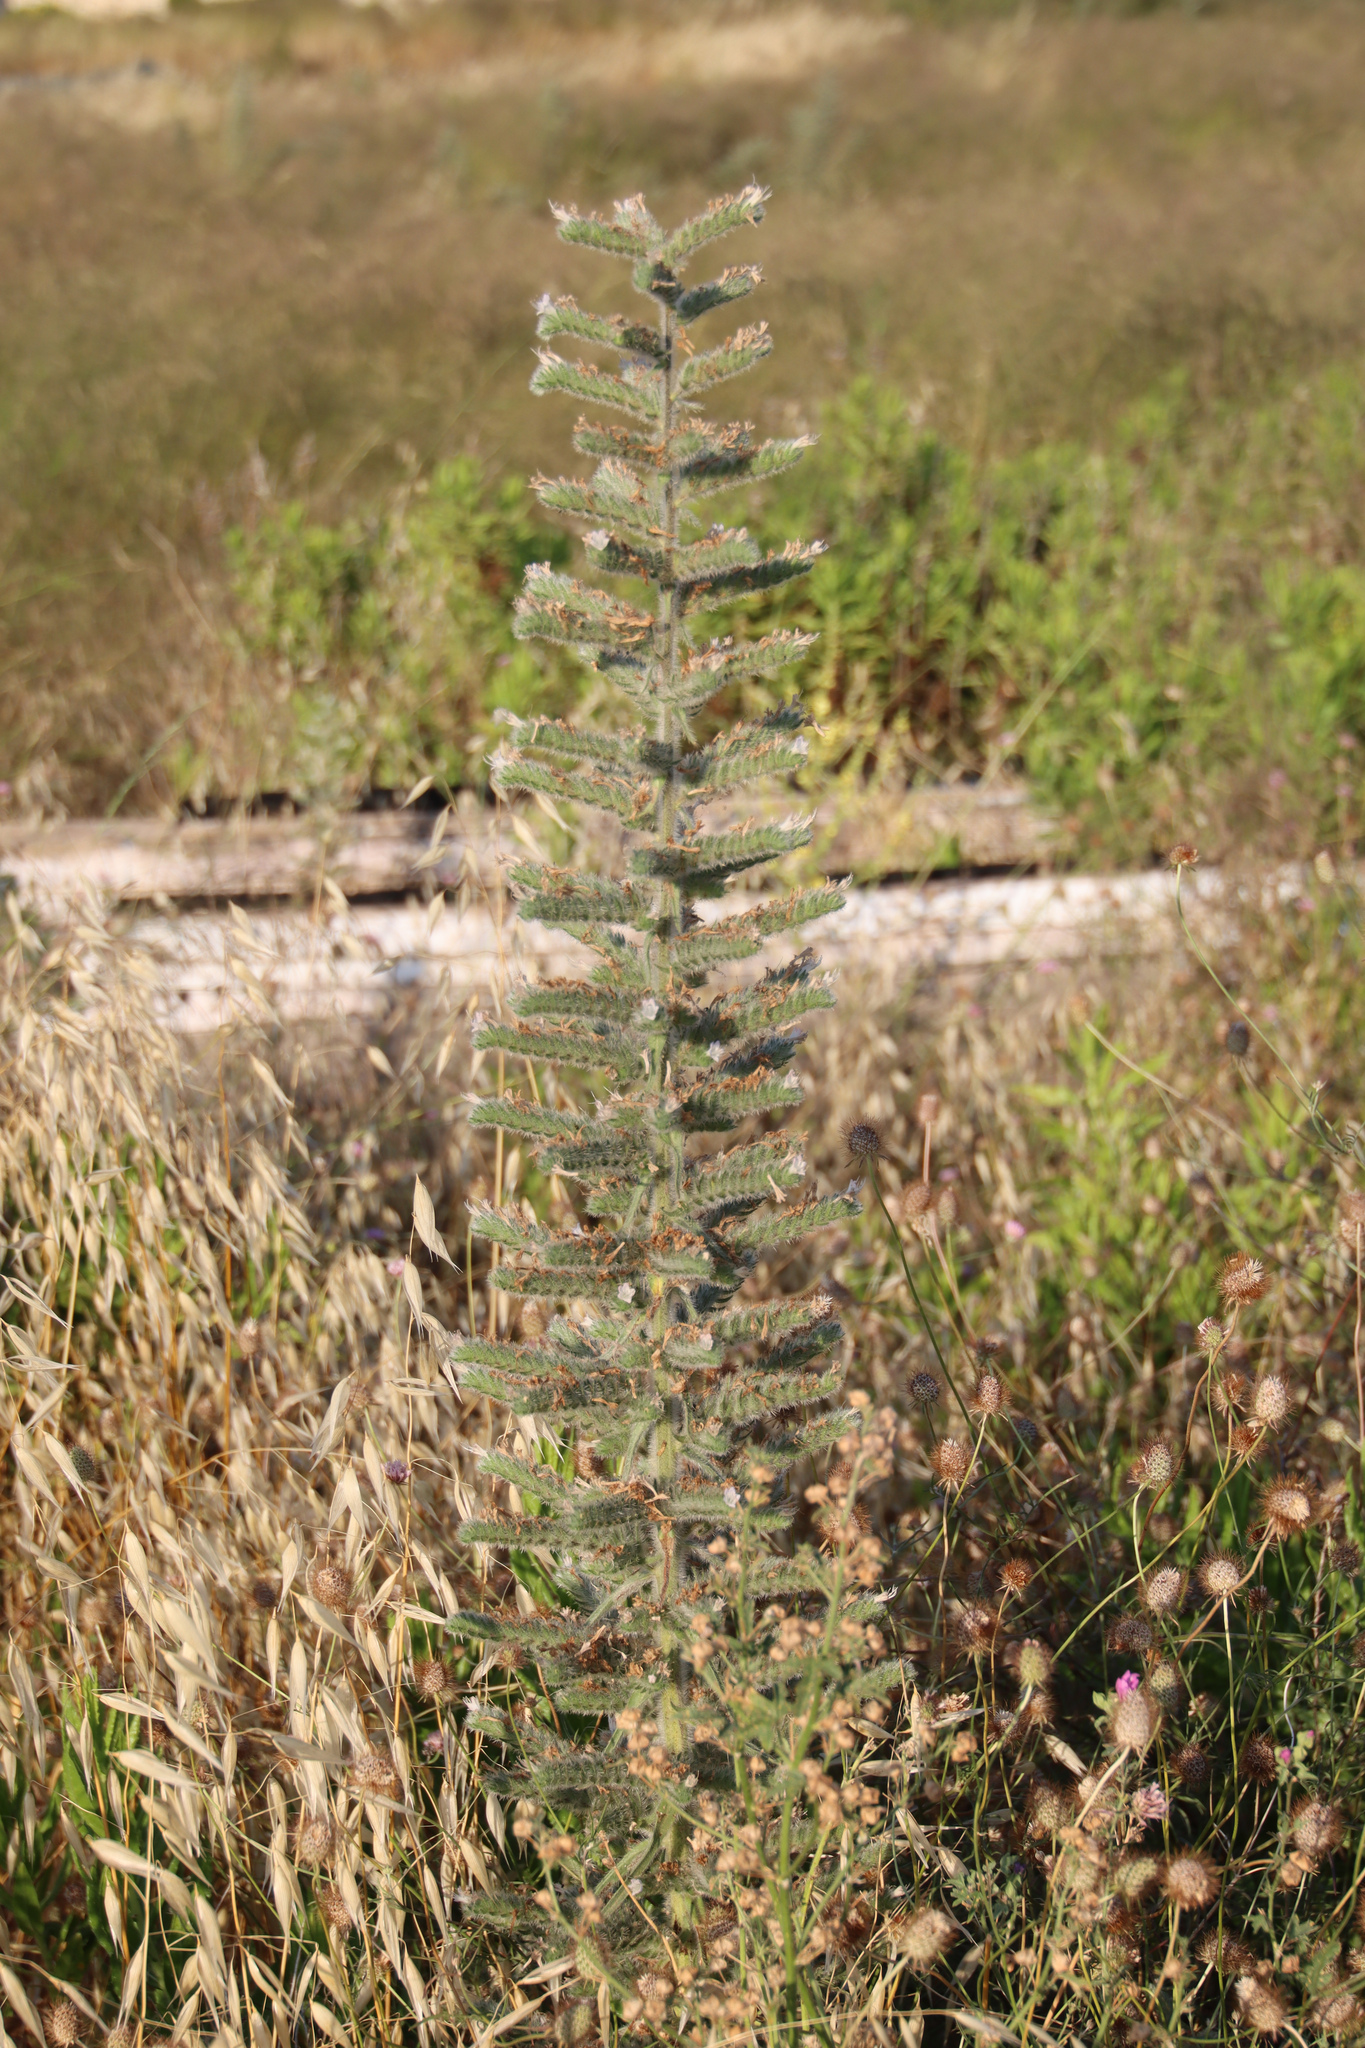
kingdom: Plantae
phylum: Tracheophyta
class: Magnoliopsida
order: Boraginales
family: Boraginaceae
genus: Echium
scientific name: Echium italicum
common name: Italian viper's bugloss
